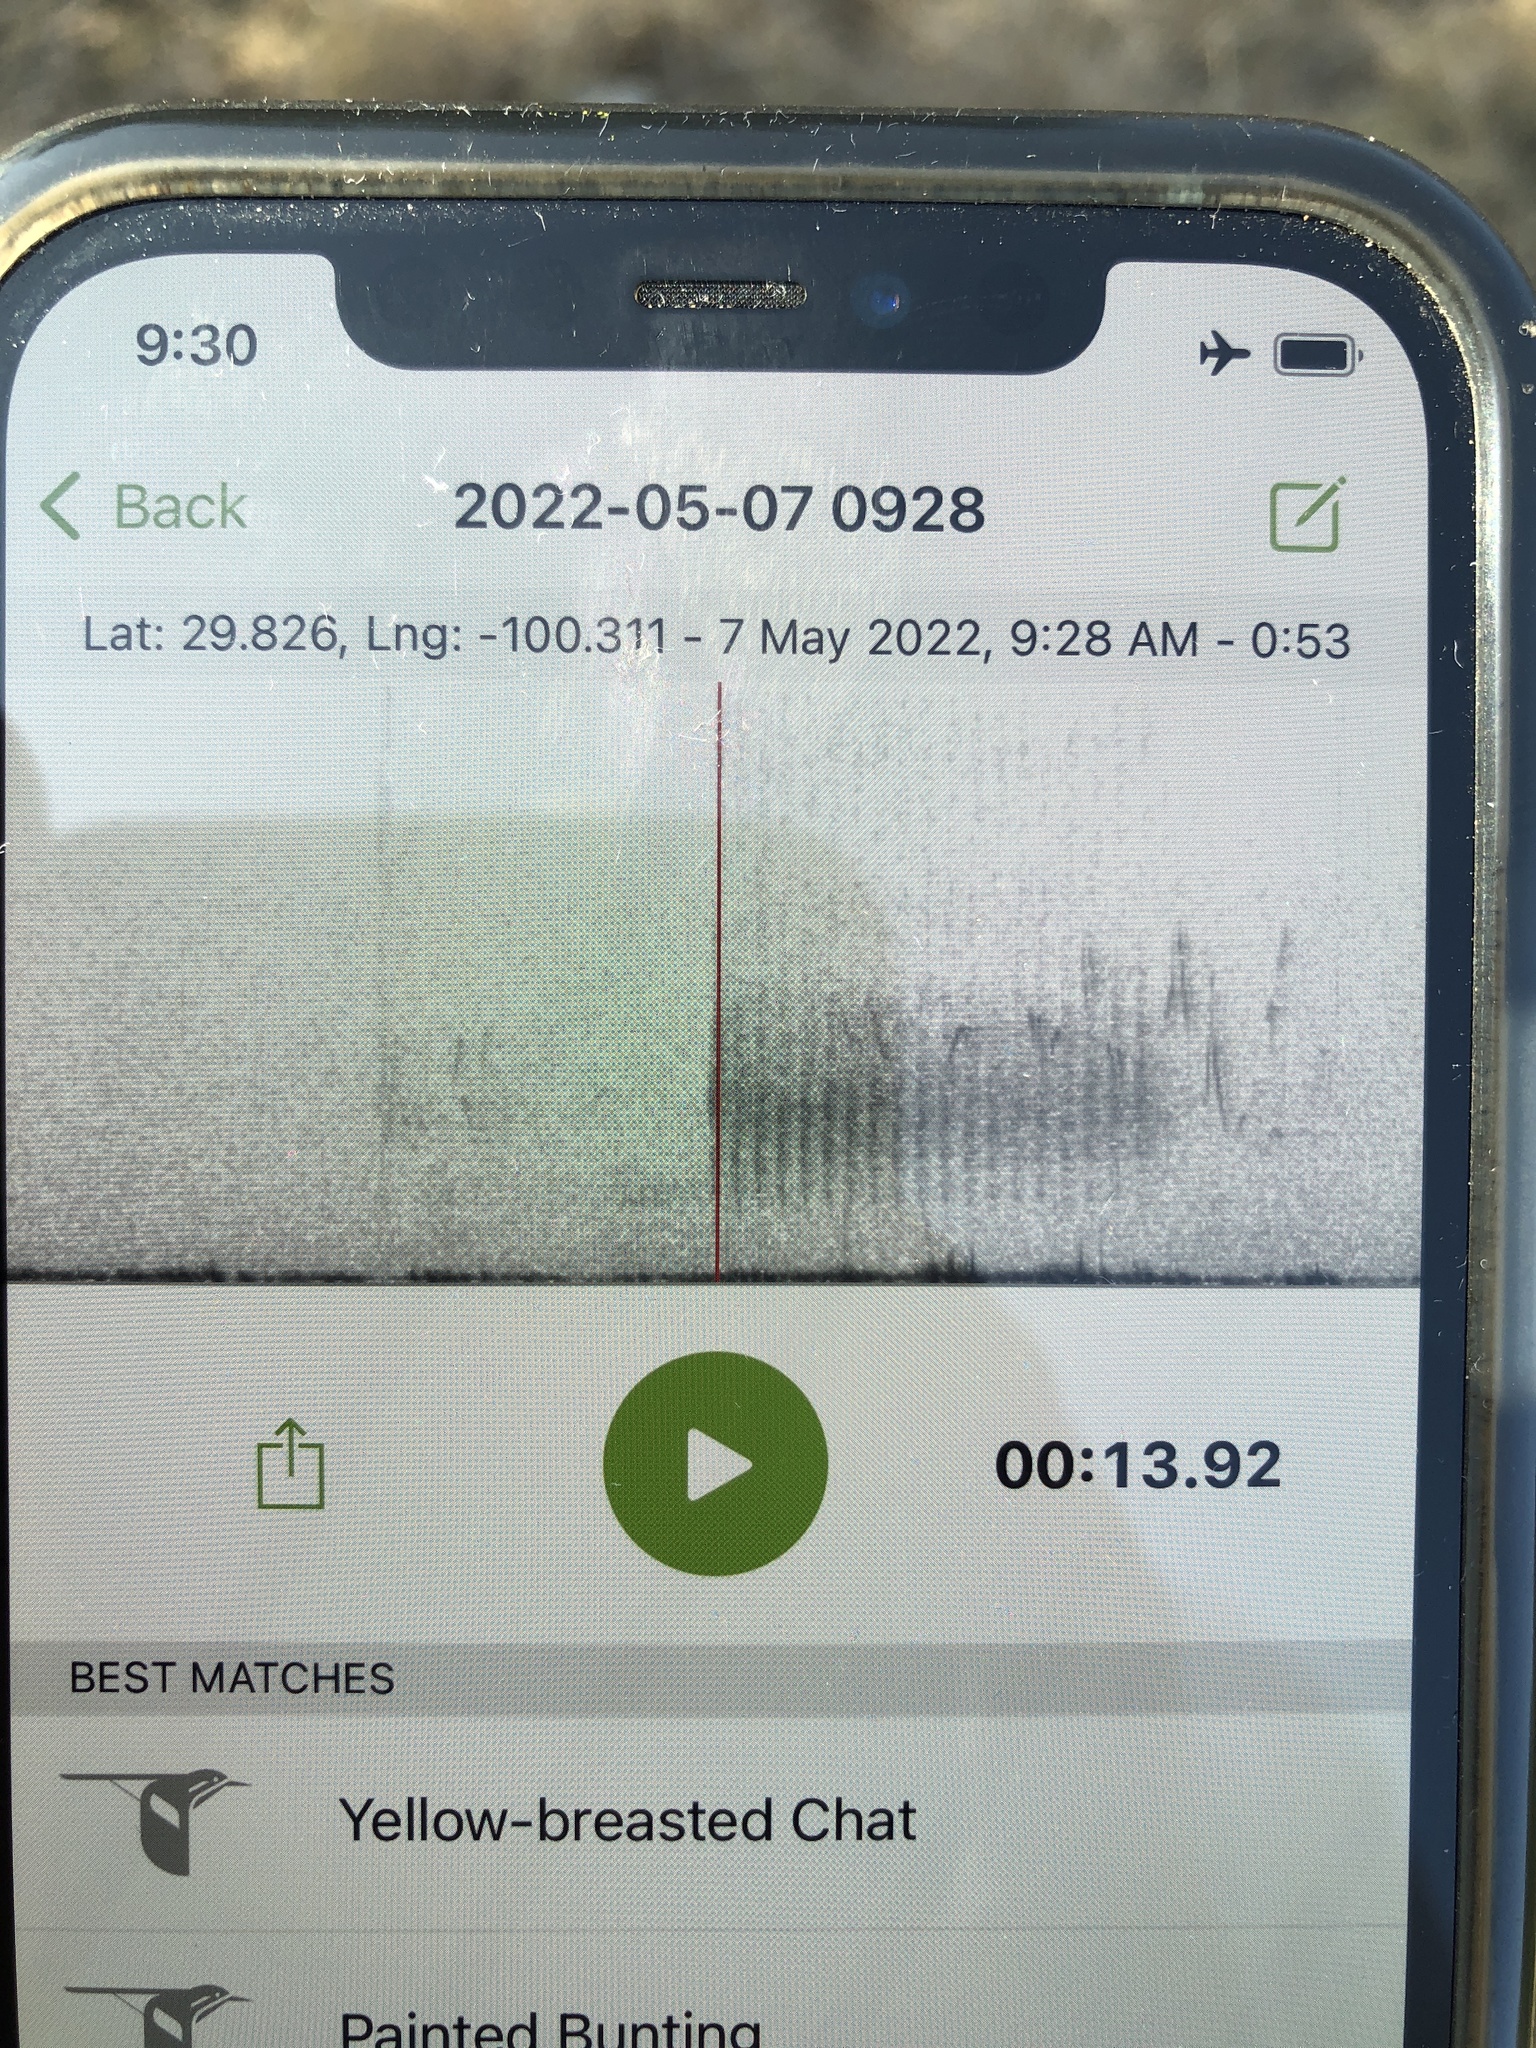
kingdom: Animalia
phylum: Chordata
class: Aves
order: Passeriformes
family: Parulidae
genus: Icteria
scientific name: Icteria virens
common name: Yellow-breasted chat
